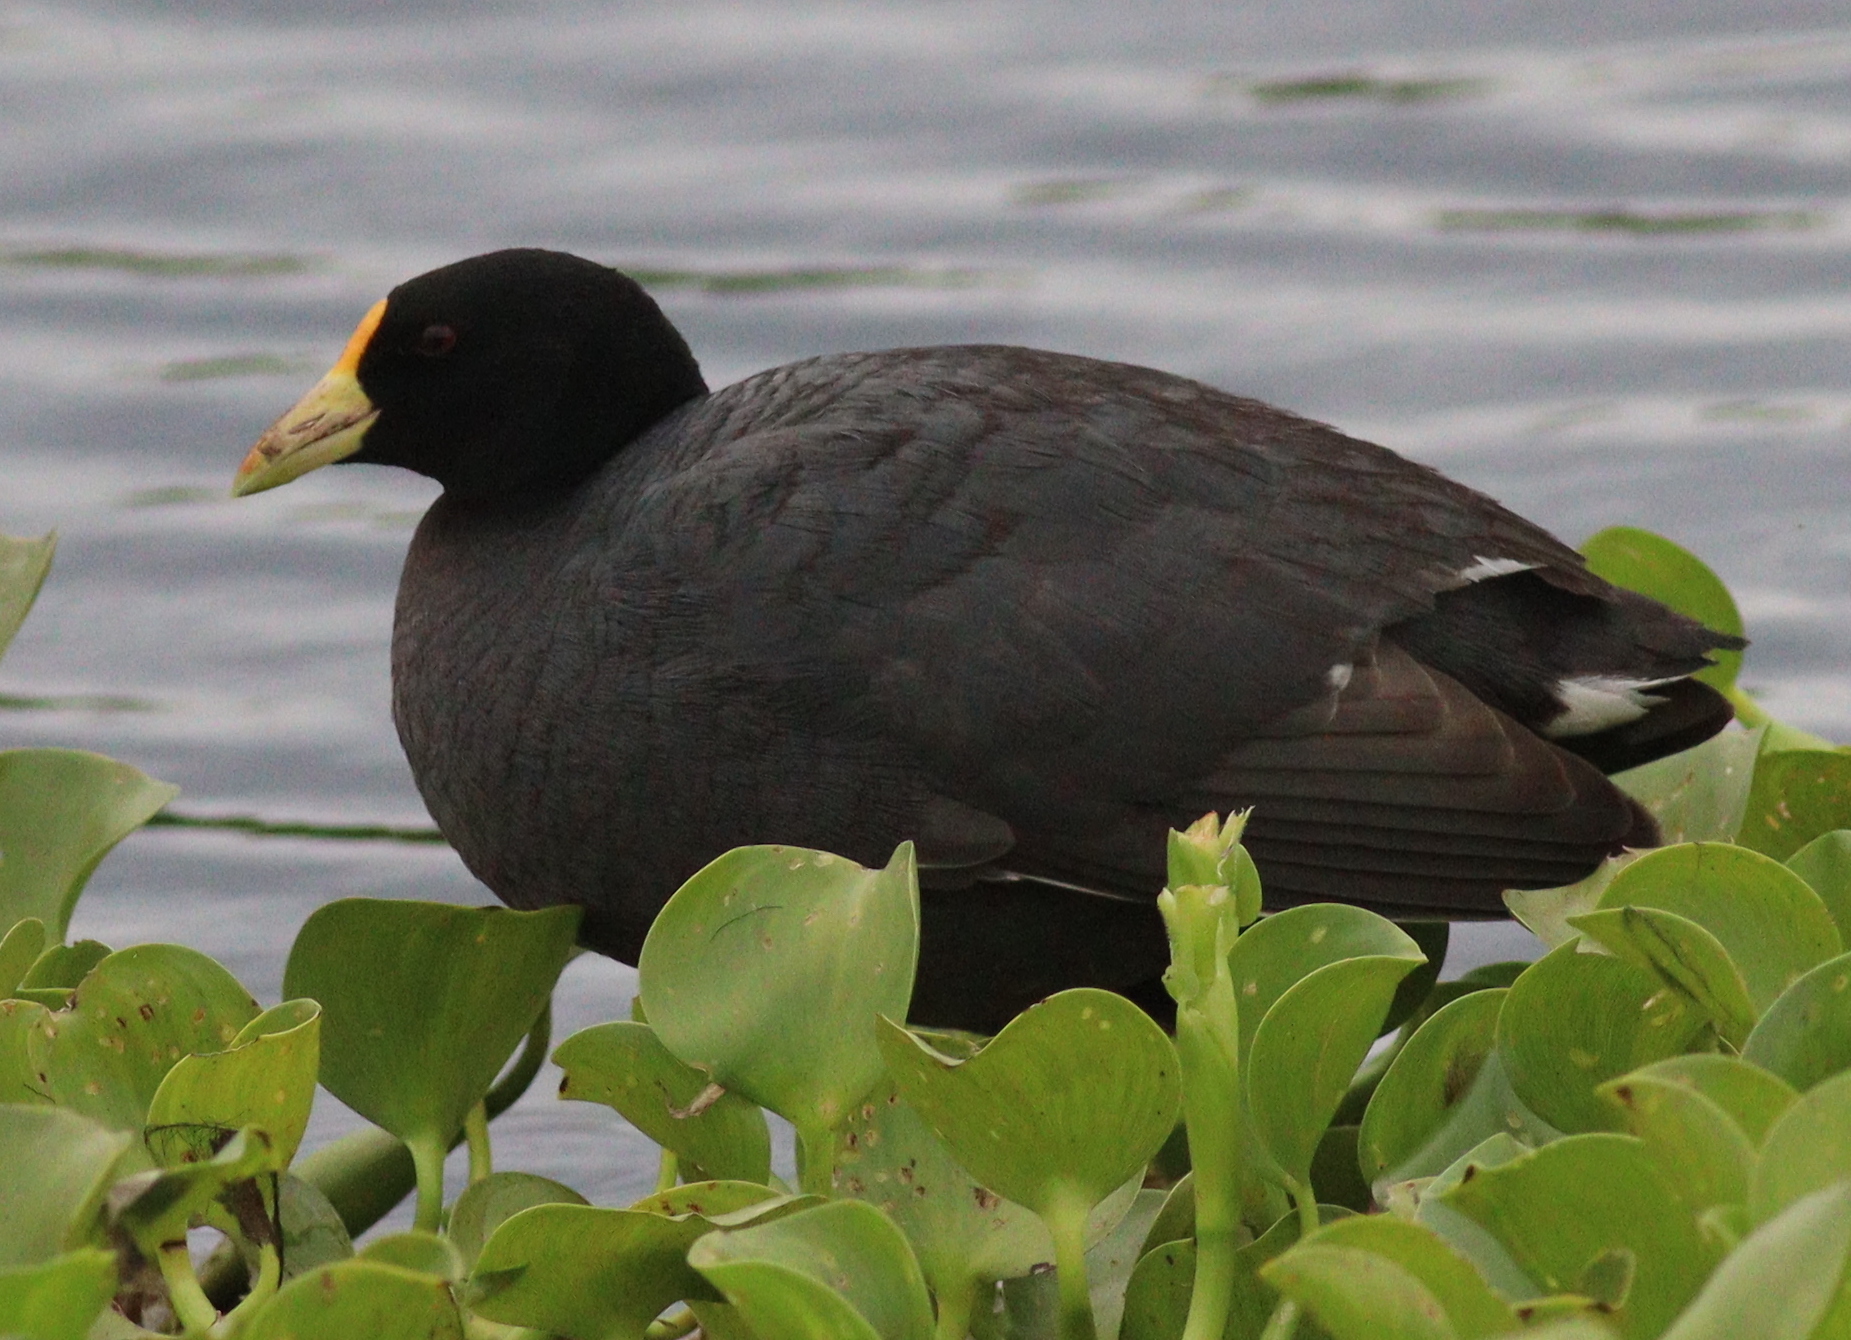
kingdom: Animalia
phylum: Chordata
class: Aves
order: Gruiformes
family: Rallidae
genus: Fulica
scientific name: Fulica leucoptera
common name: White-winged coot
